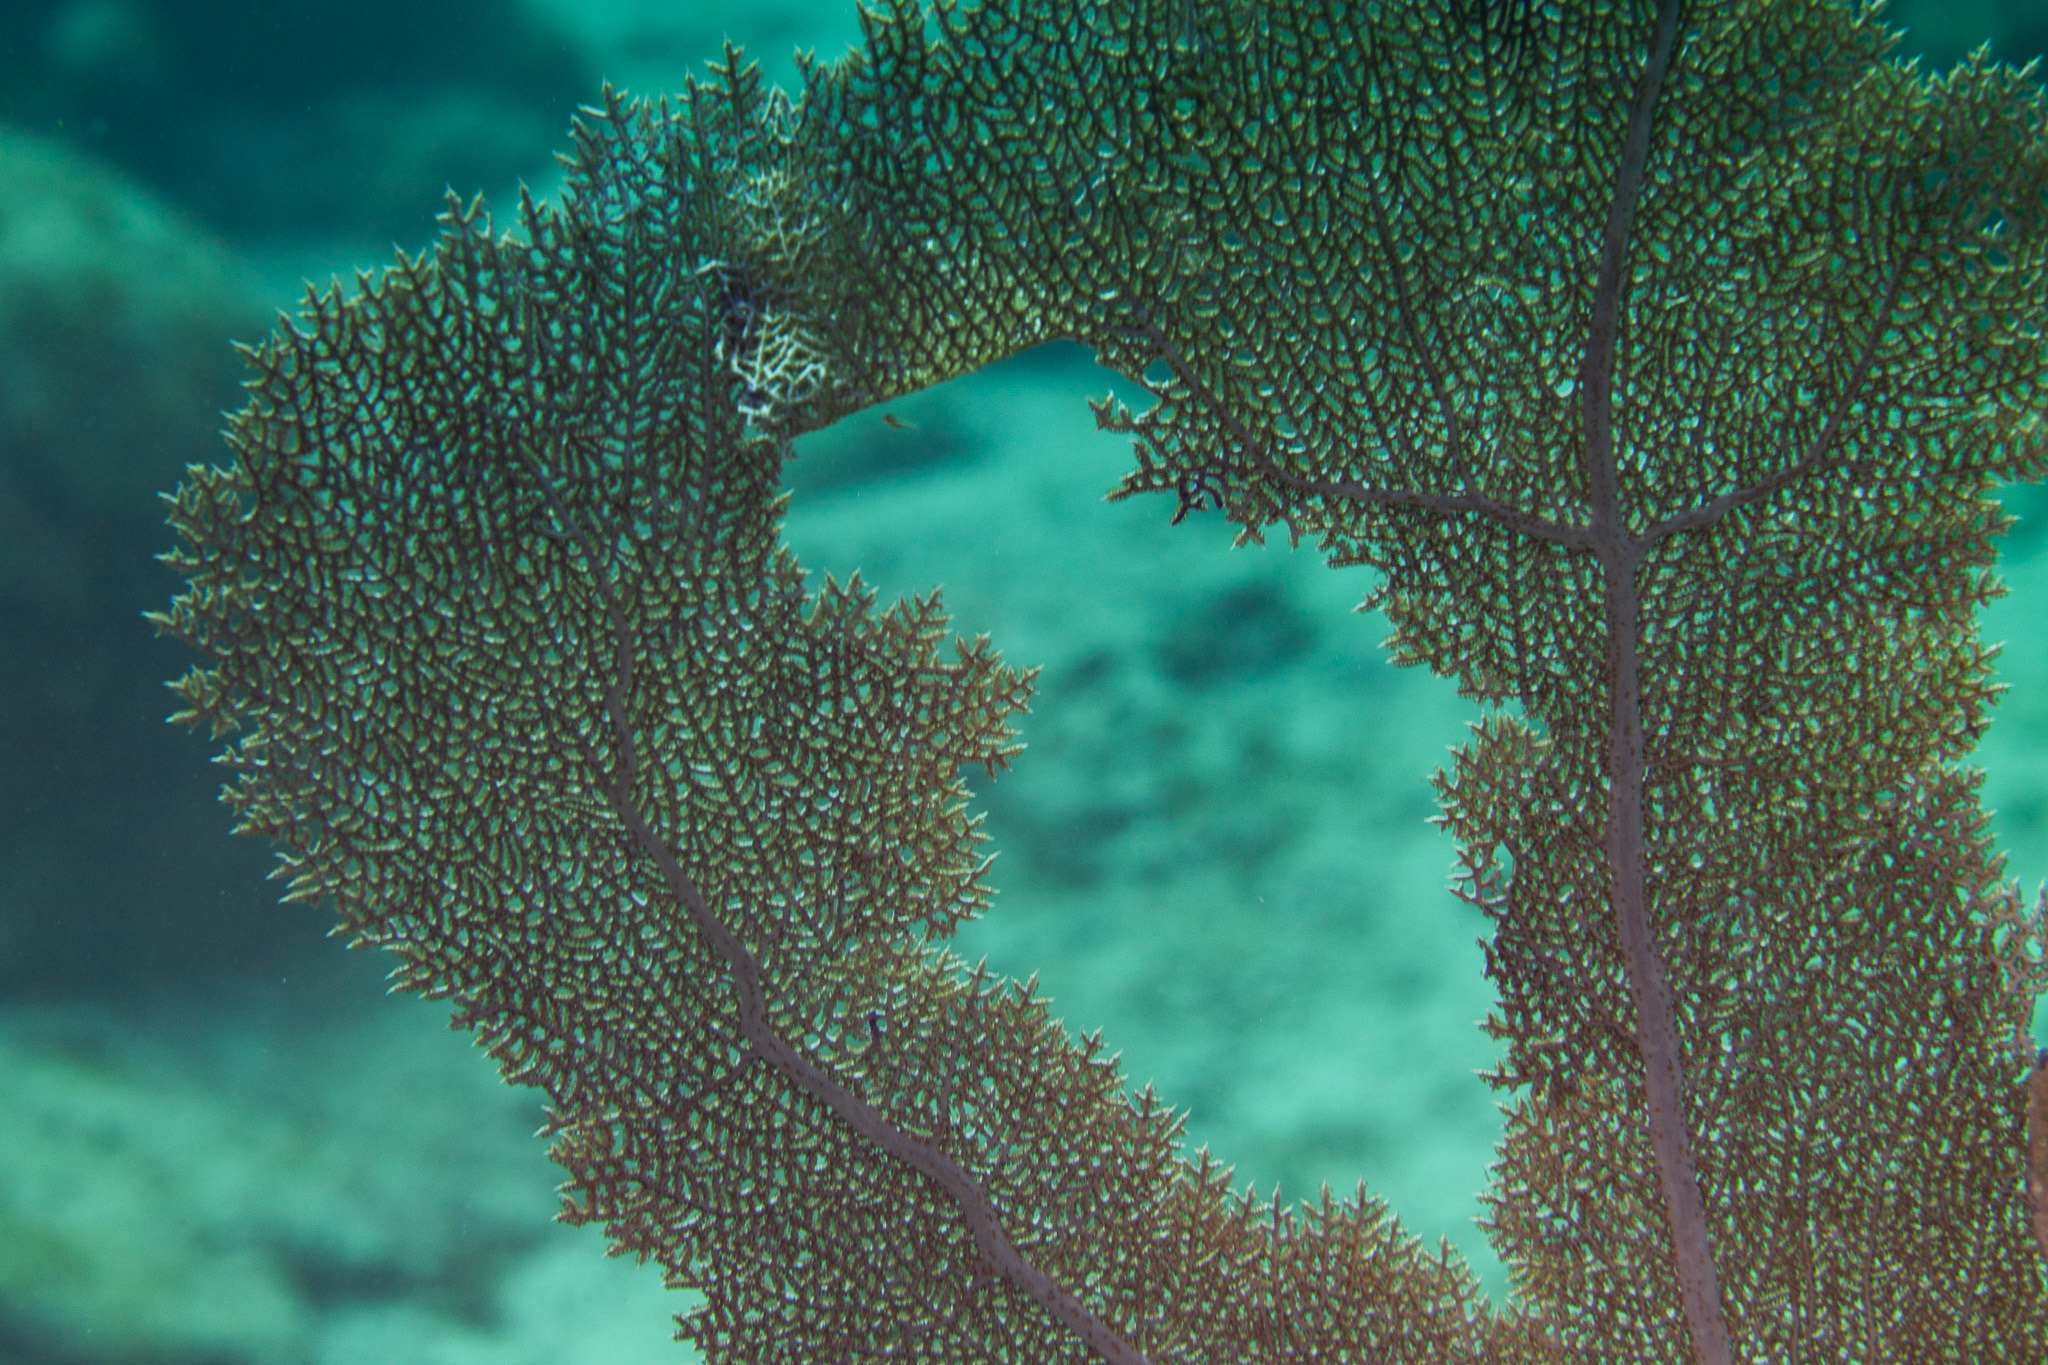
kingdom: Animalia
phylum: Cnidaria
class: Anthozoa
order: Malacalcyonacea
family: Gorgoniidae
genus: Gorgonia
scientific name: Gorgonia ventalina
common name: Common sea fan
